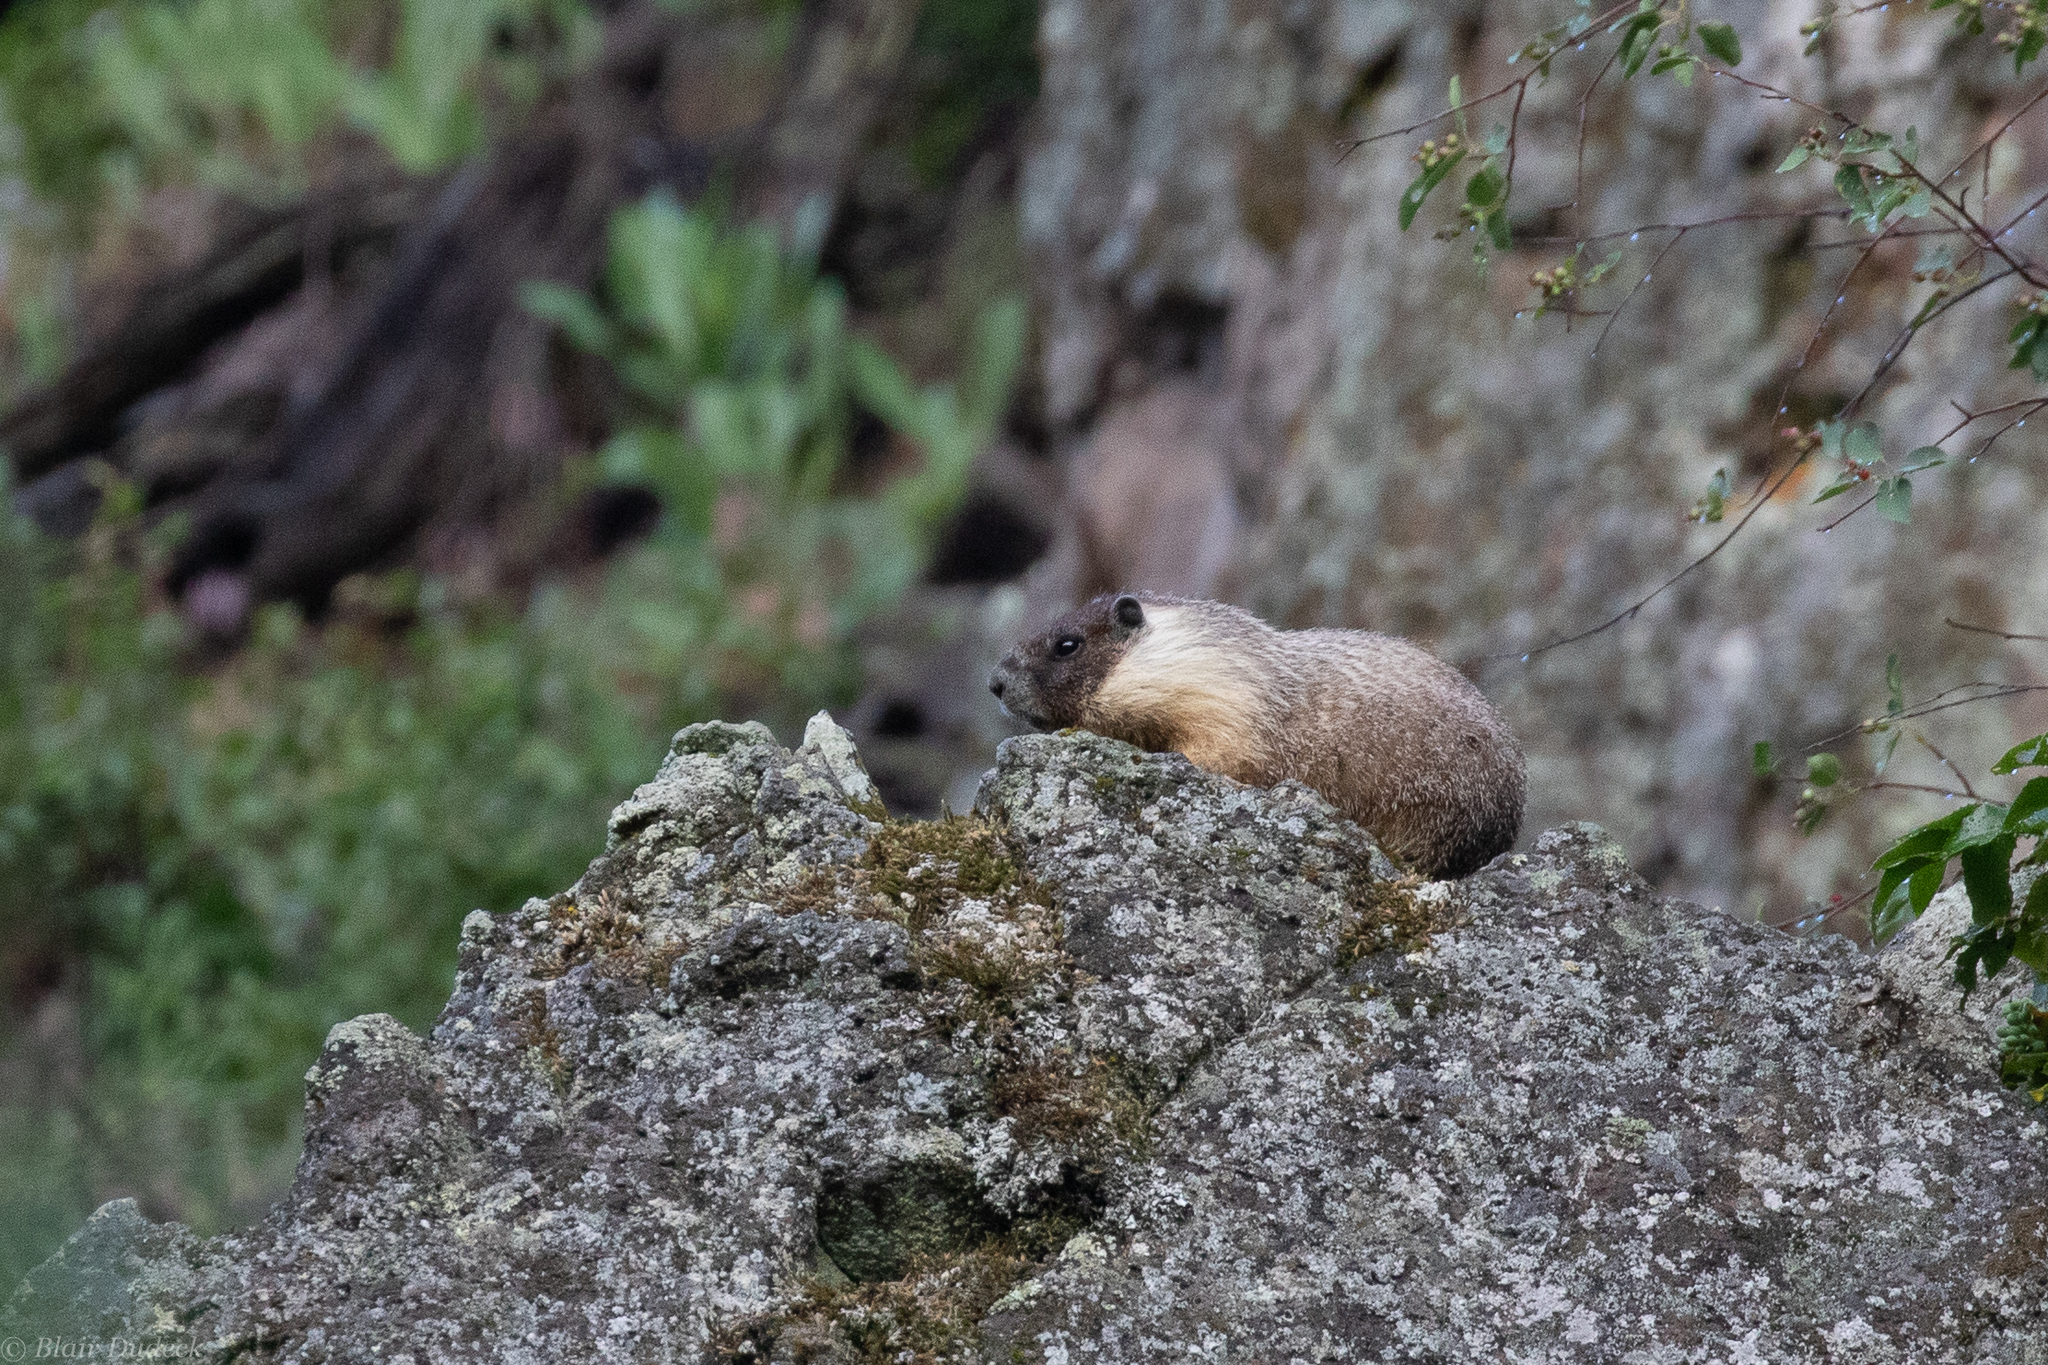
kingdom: Animalia
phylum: Chordata
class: Mammalia
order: Rodentia
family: Sciuridae
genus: Marmota
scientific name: Marmota flaviventris
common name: Yellow-bellied marmot
